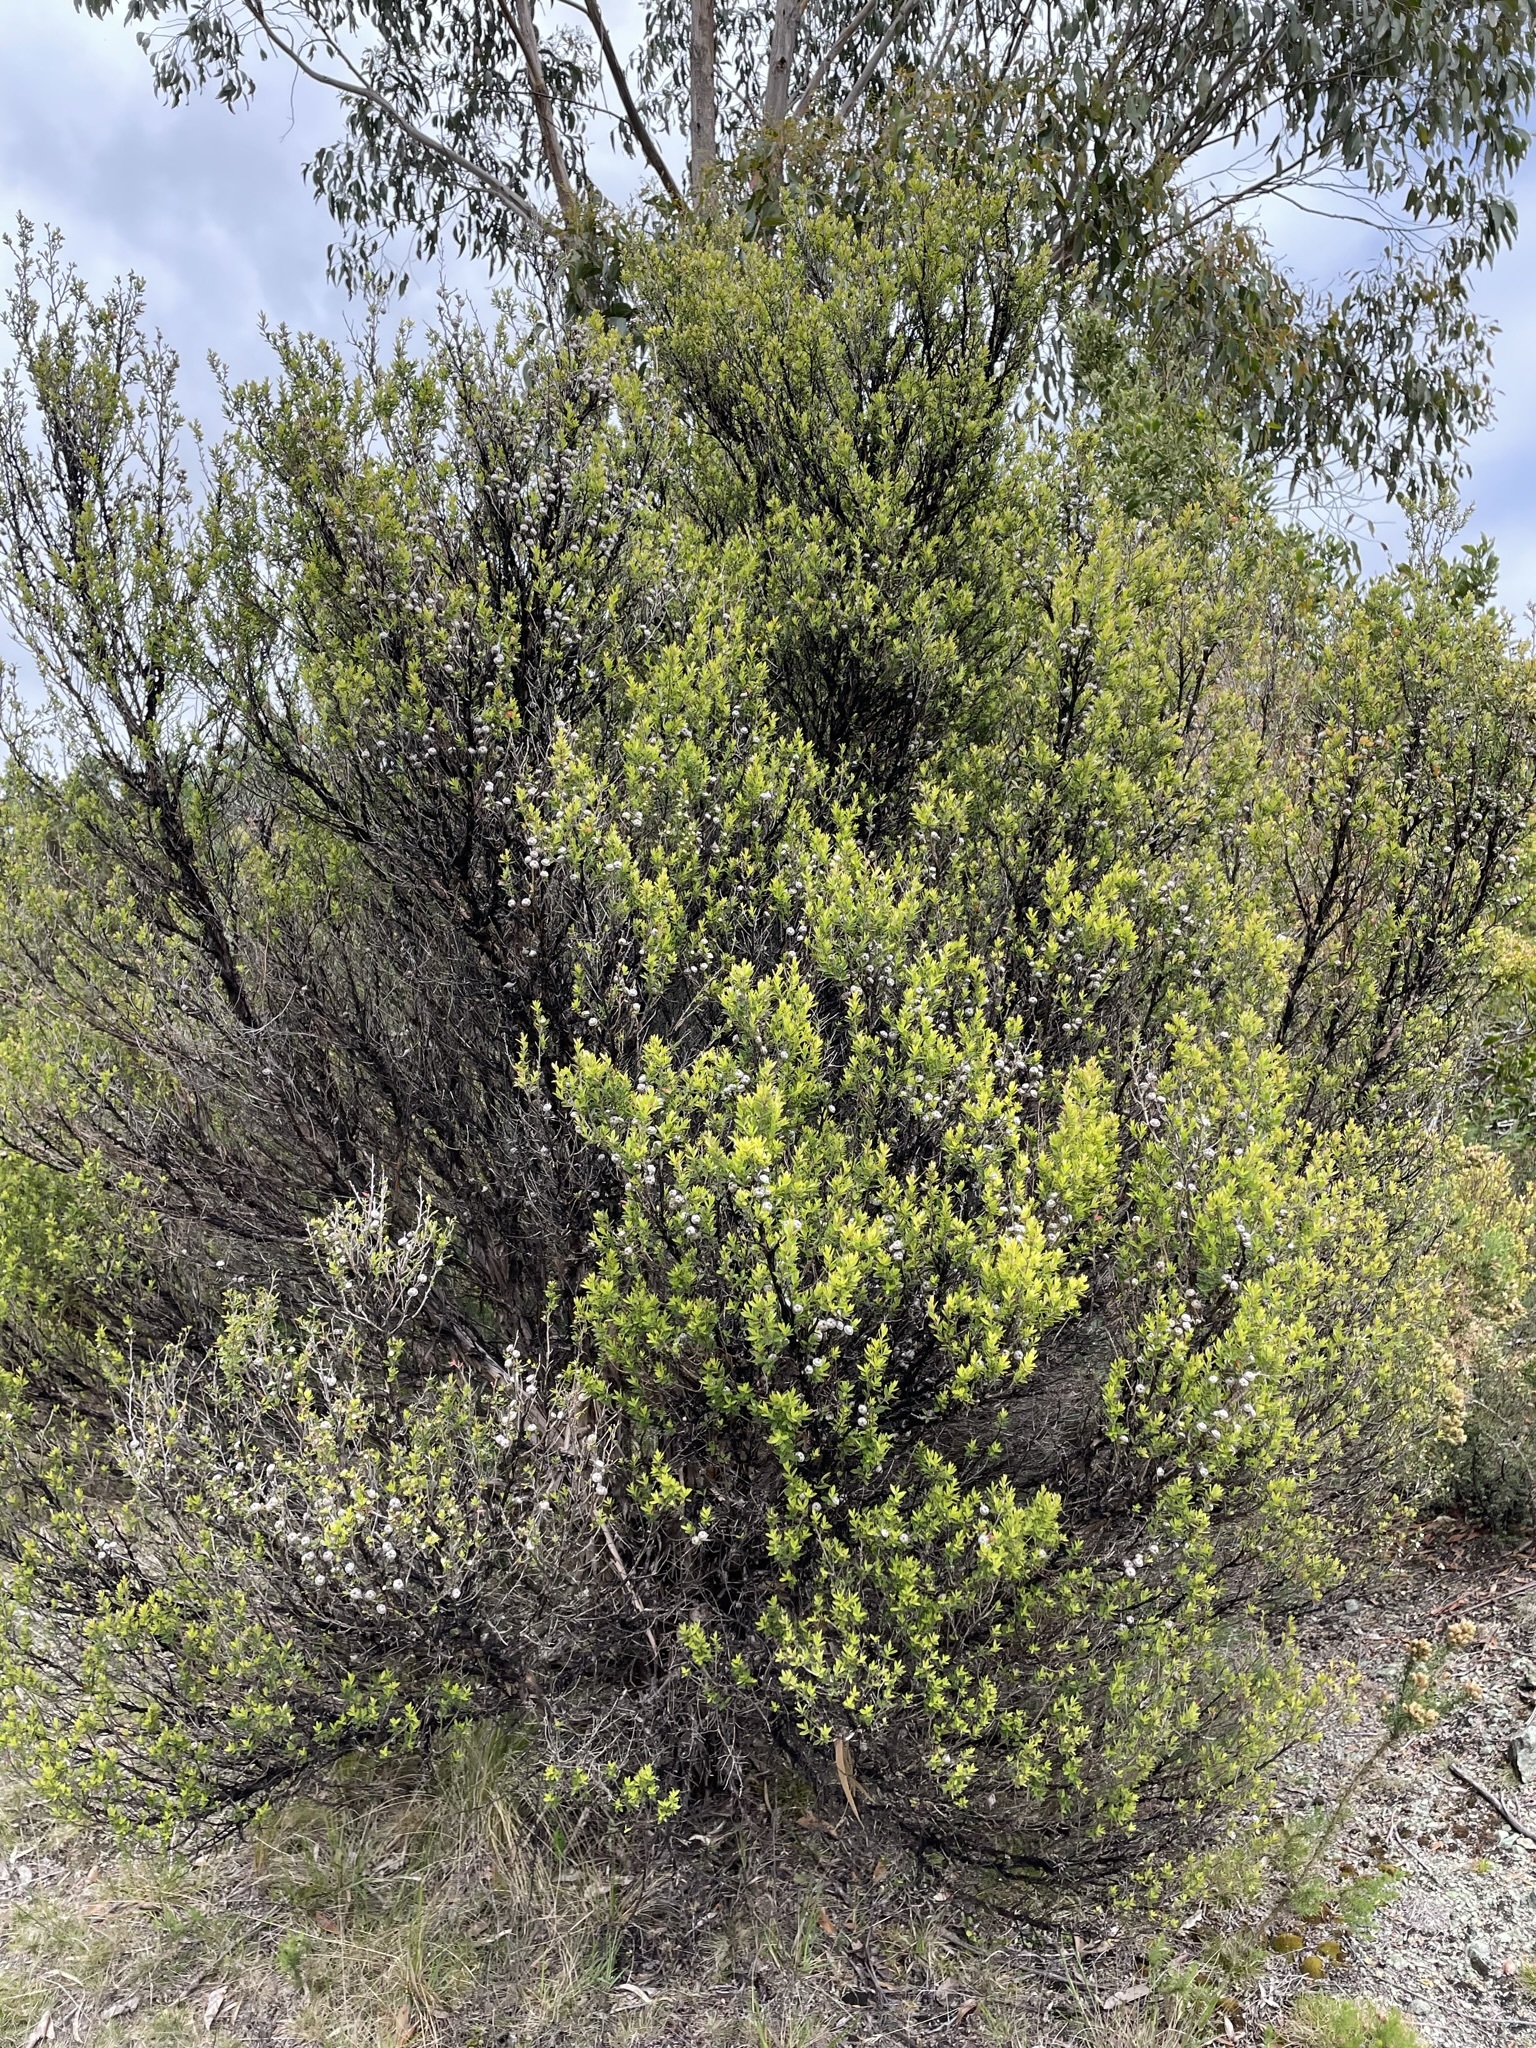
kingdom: Plantae
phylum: Tracheophyta
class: Magnoliopsida
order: Myrtales
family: Myrtaceae
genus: Leptospermum
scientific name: Leptospermum scoparium
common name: Broom tea-tree
